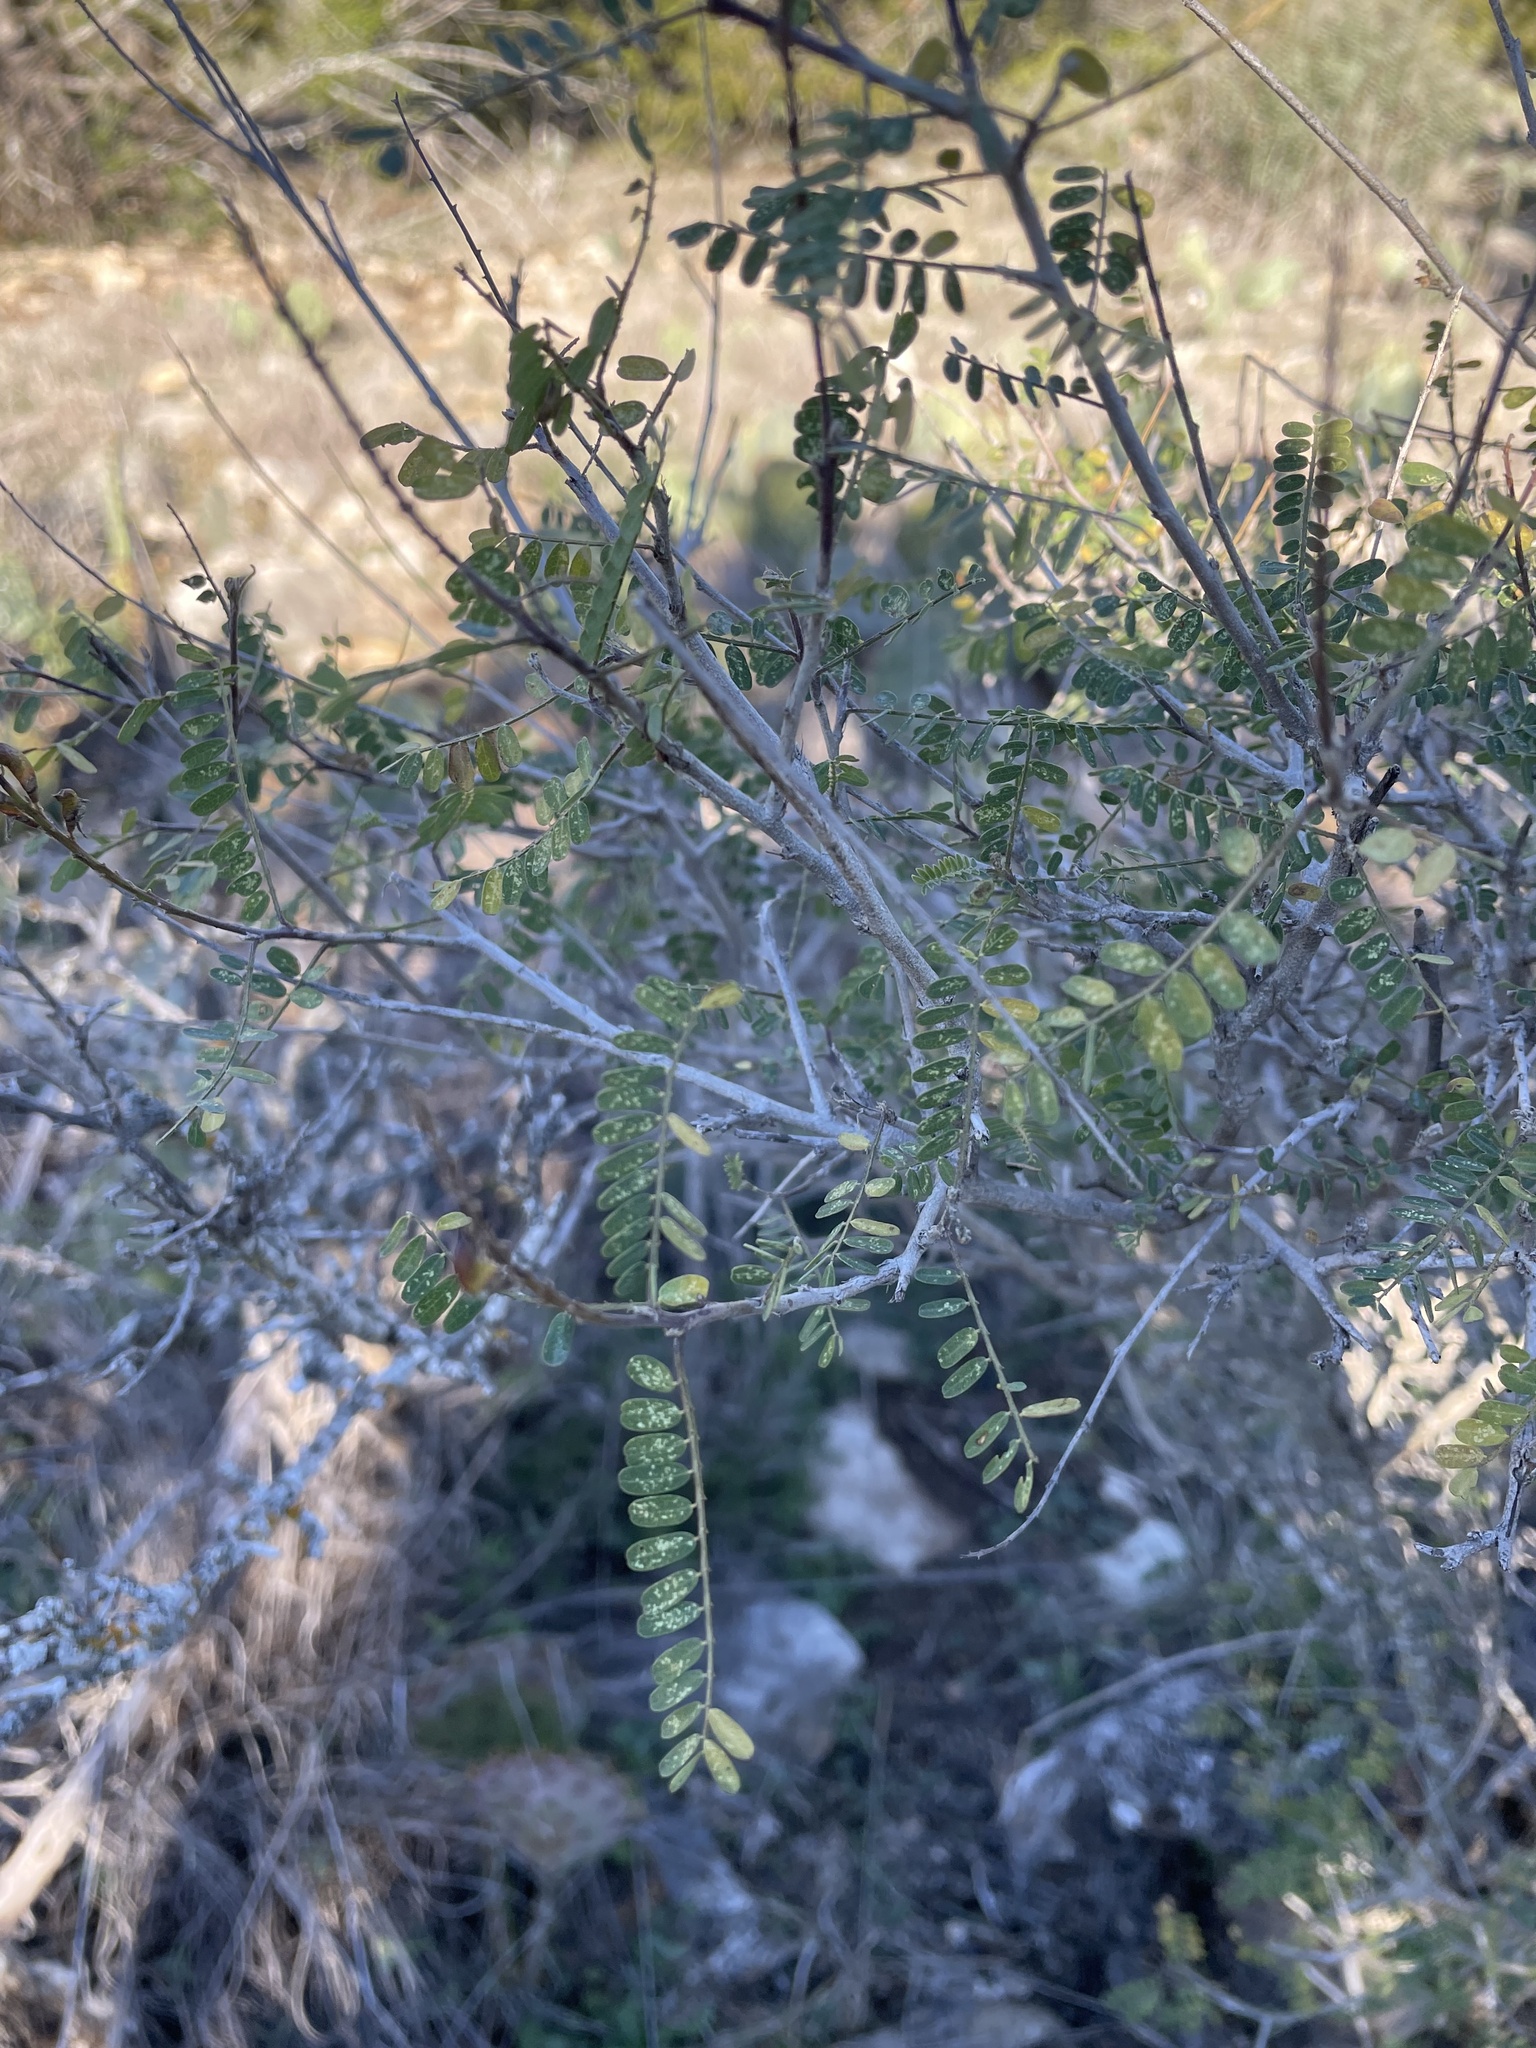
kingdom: Plantae
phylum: Tracheophyta
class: Magnoliopsida
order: Fabales
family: Fabaceae
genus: Eysenhardtia
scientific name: Eysenhardtia texana
